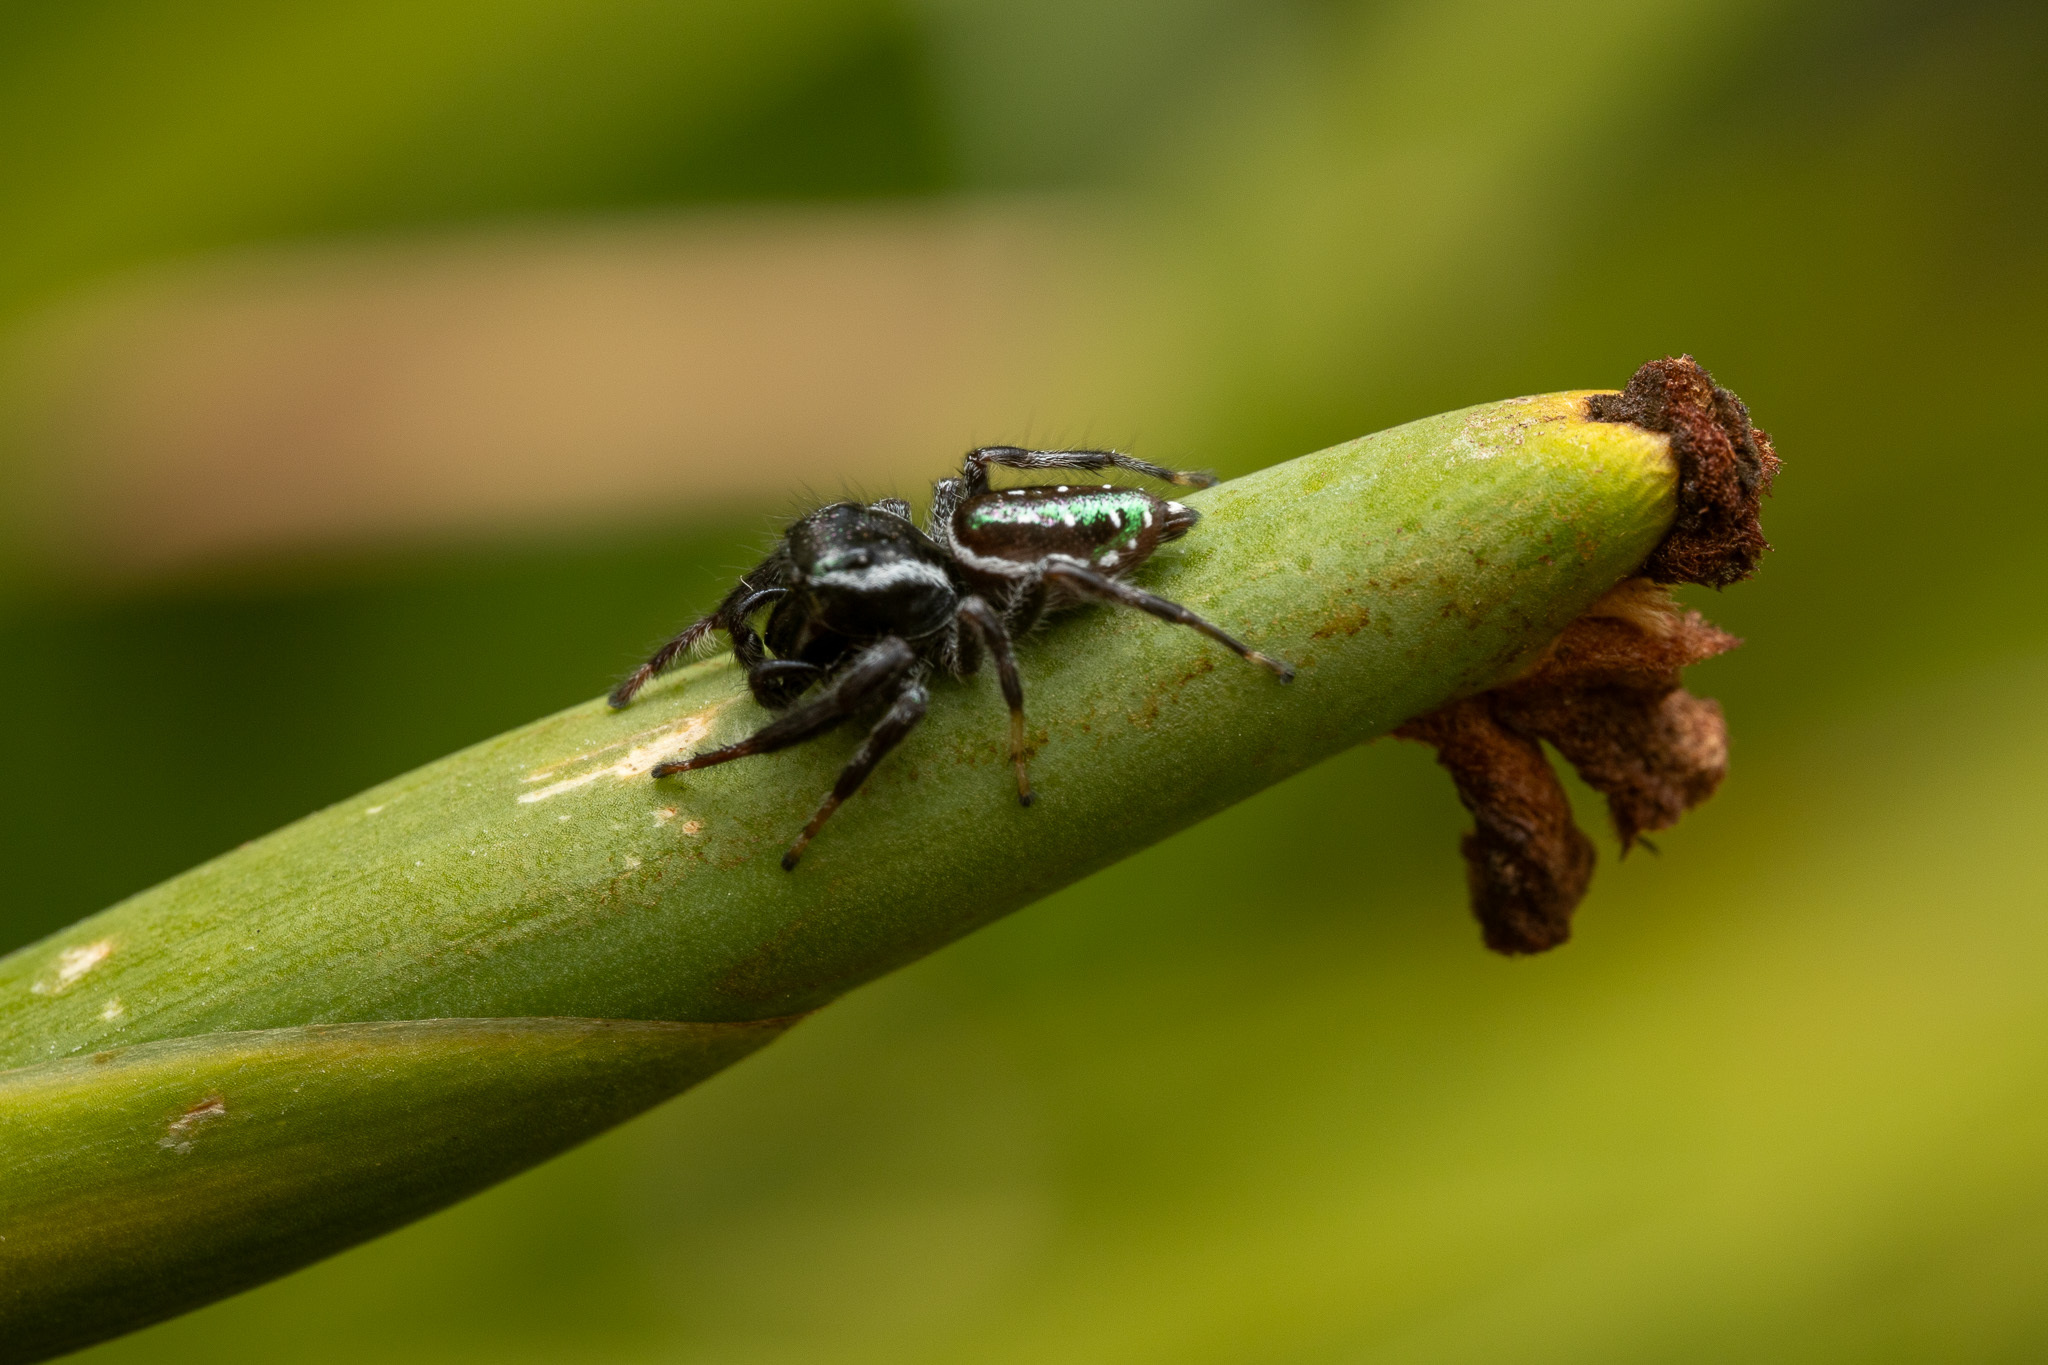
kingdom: Animalia
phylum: Arthropoda
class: Arachnida
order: Araneae
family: Salticidae
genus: Paraphidippus
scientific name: Paraphidippus aurantius
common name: Jumping spiders
